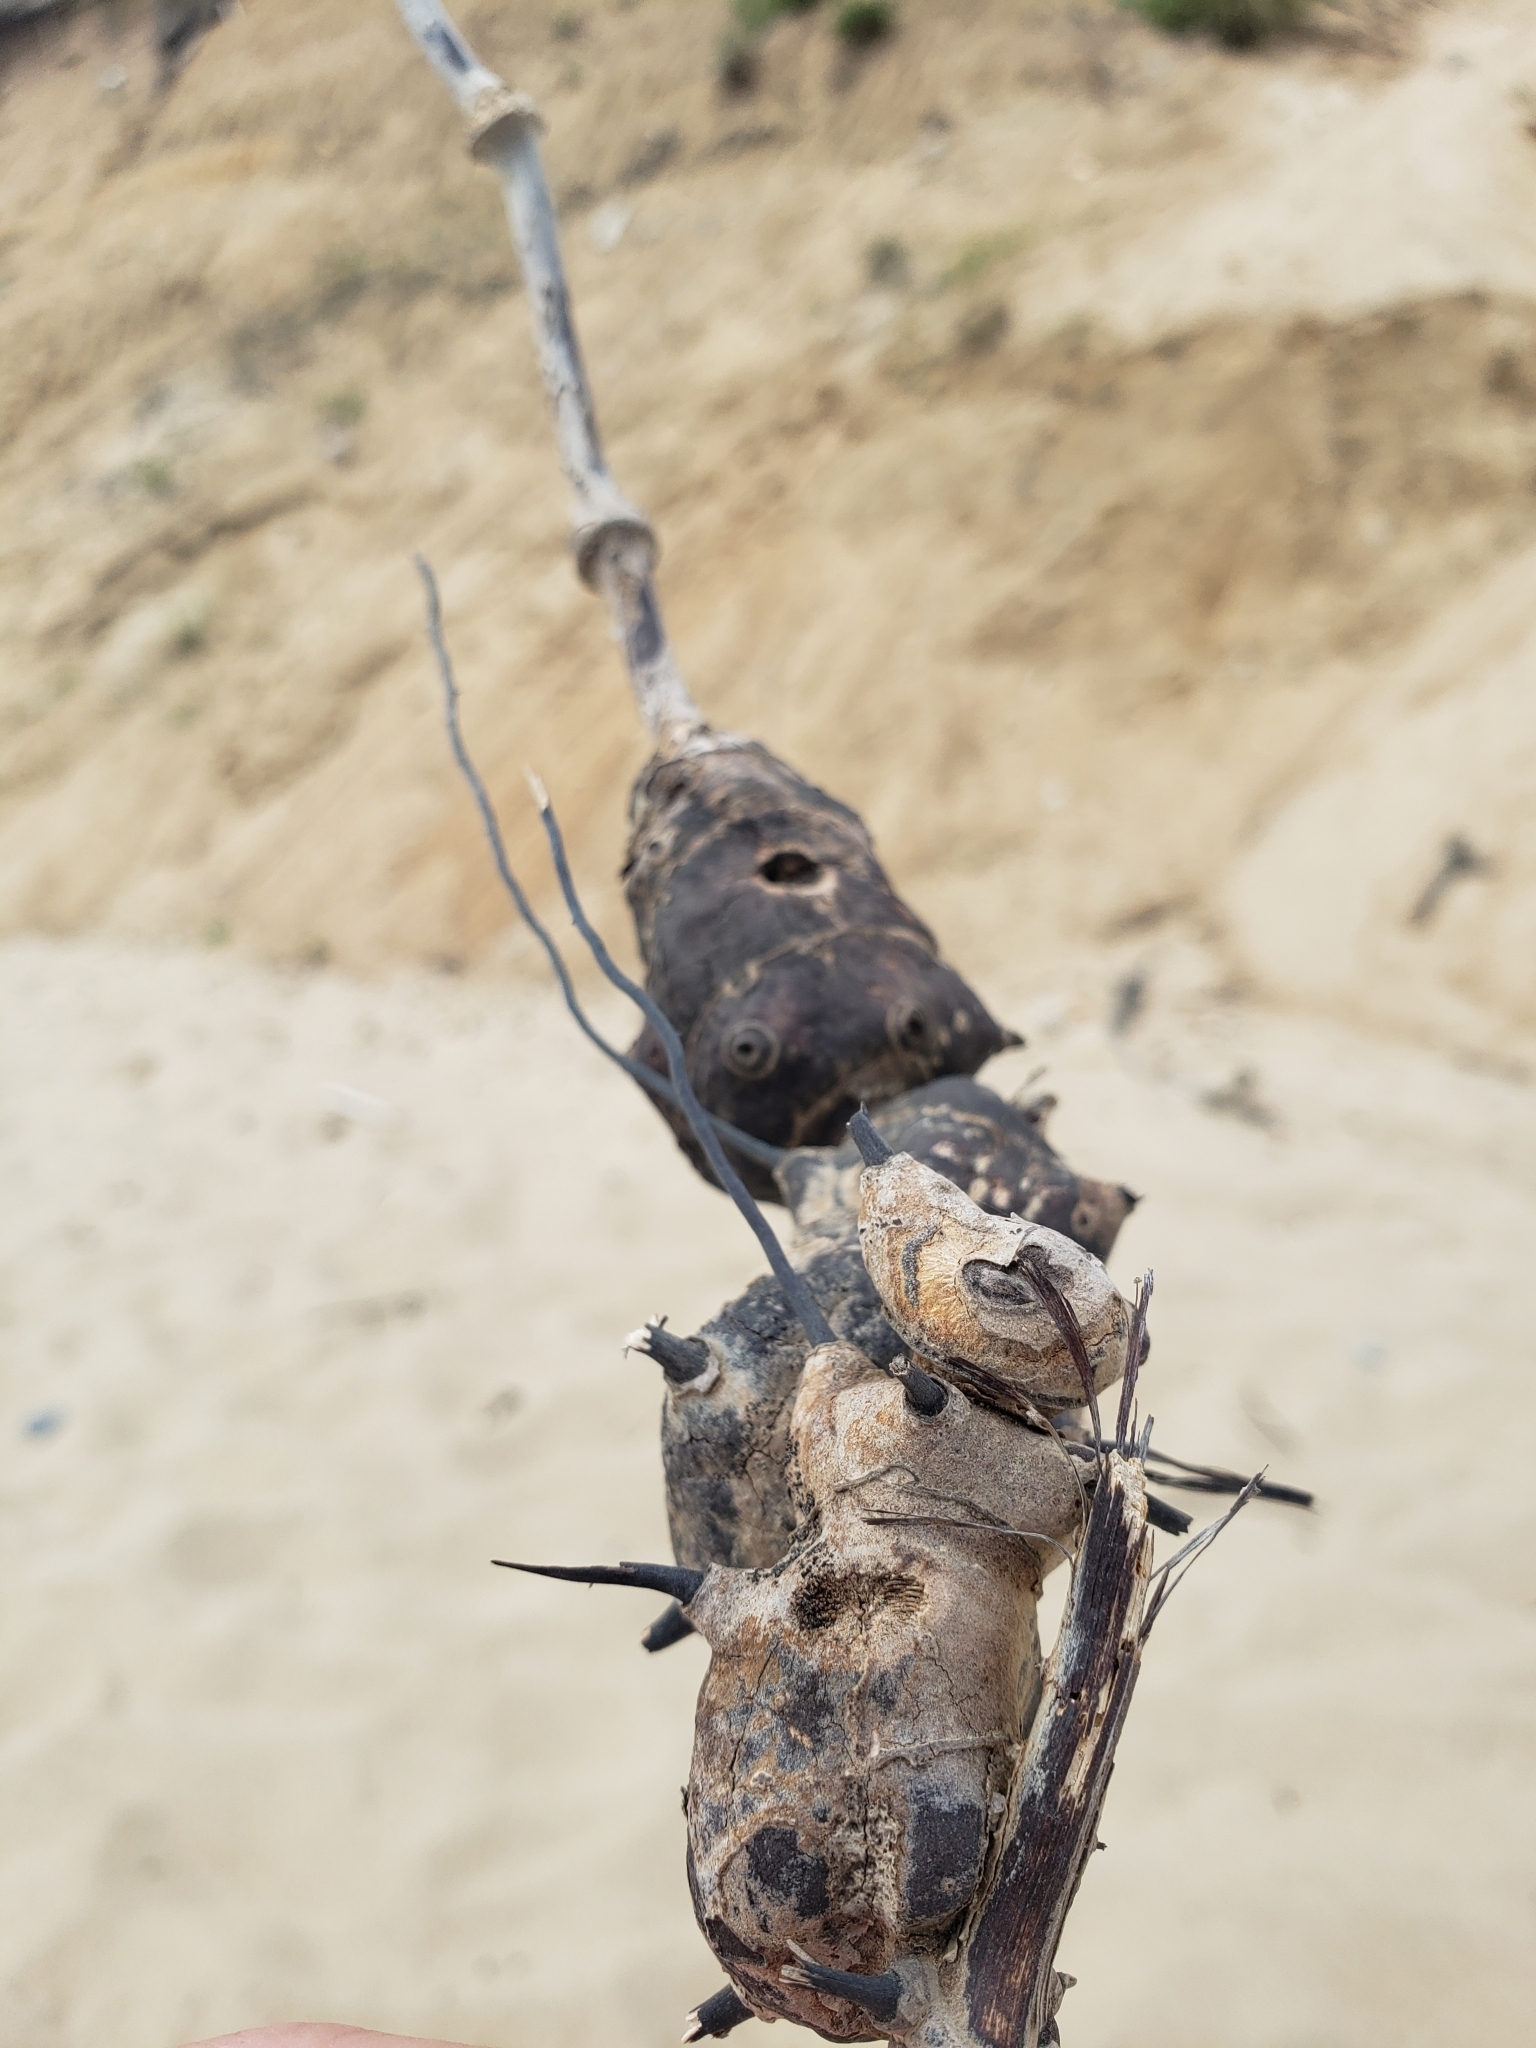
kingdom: Plantae
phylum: Tracheophyta
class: Liliopsida
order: Liliales
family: Smilacaceae
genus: Smilax
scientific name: Smilax glauca
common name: Cat greenbrier
